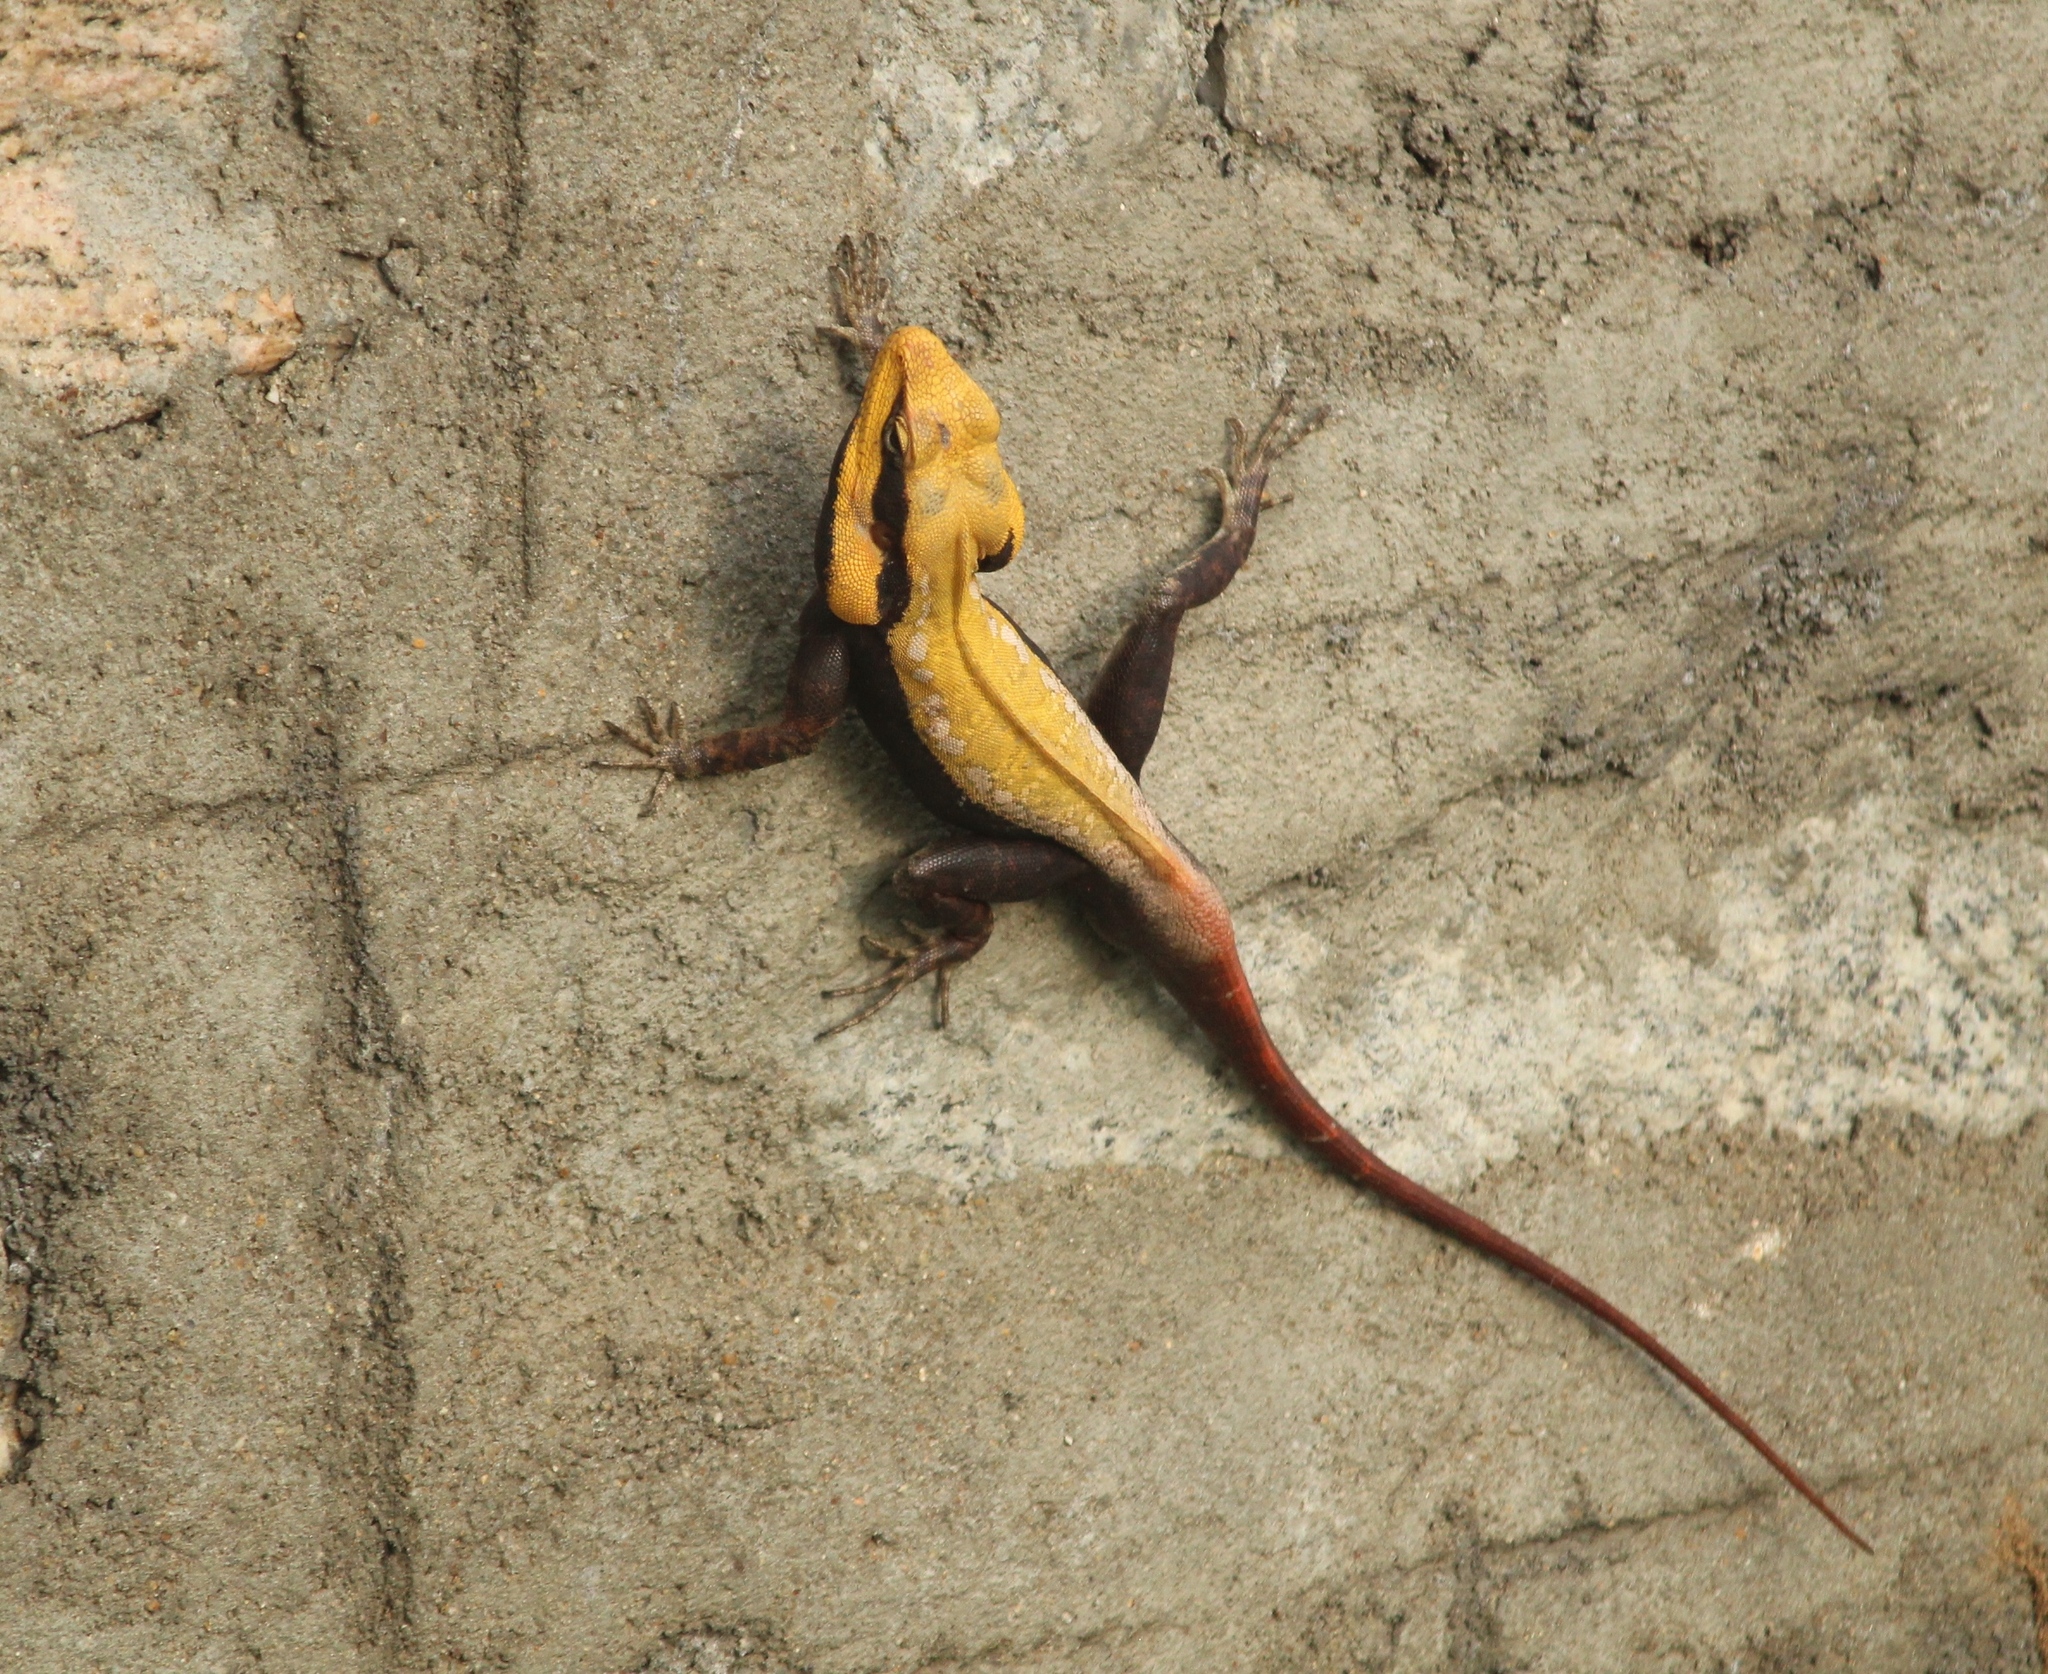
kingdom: Animalia
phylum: Chordata
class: Squamata
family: Agamidae
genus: Psammophilus
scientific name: Psammophilus dorsalis
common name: South indian rock agama
